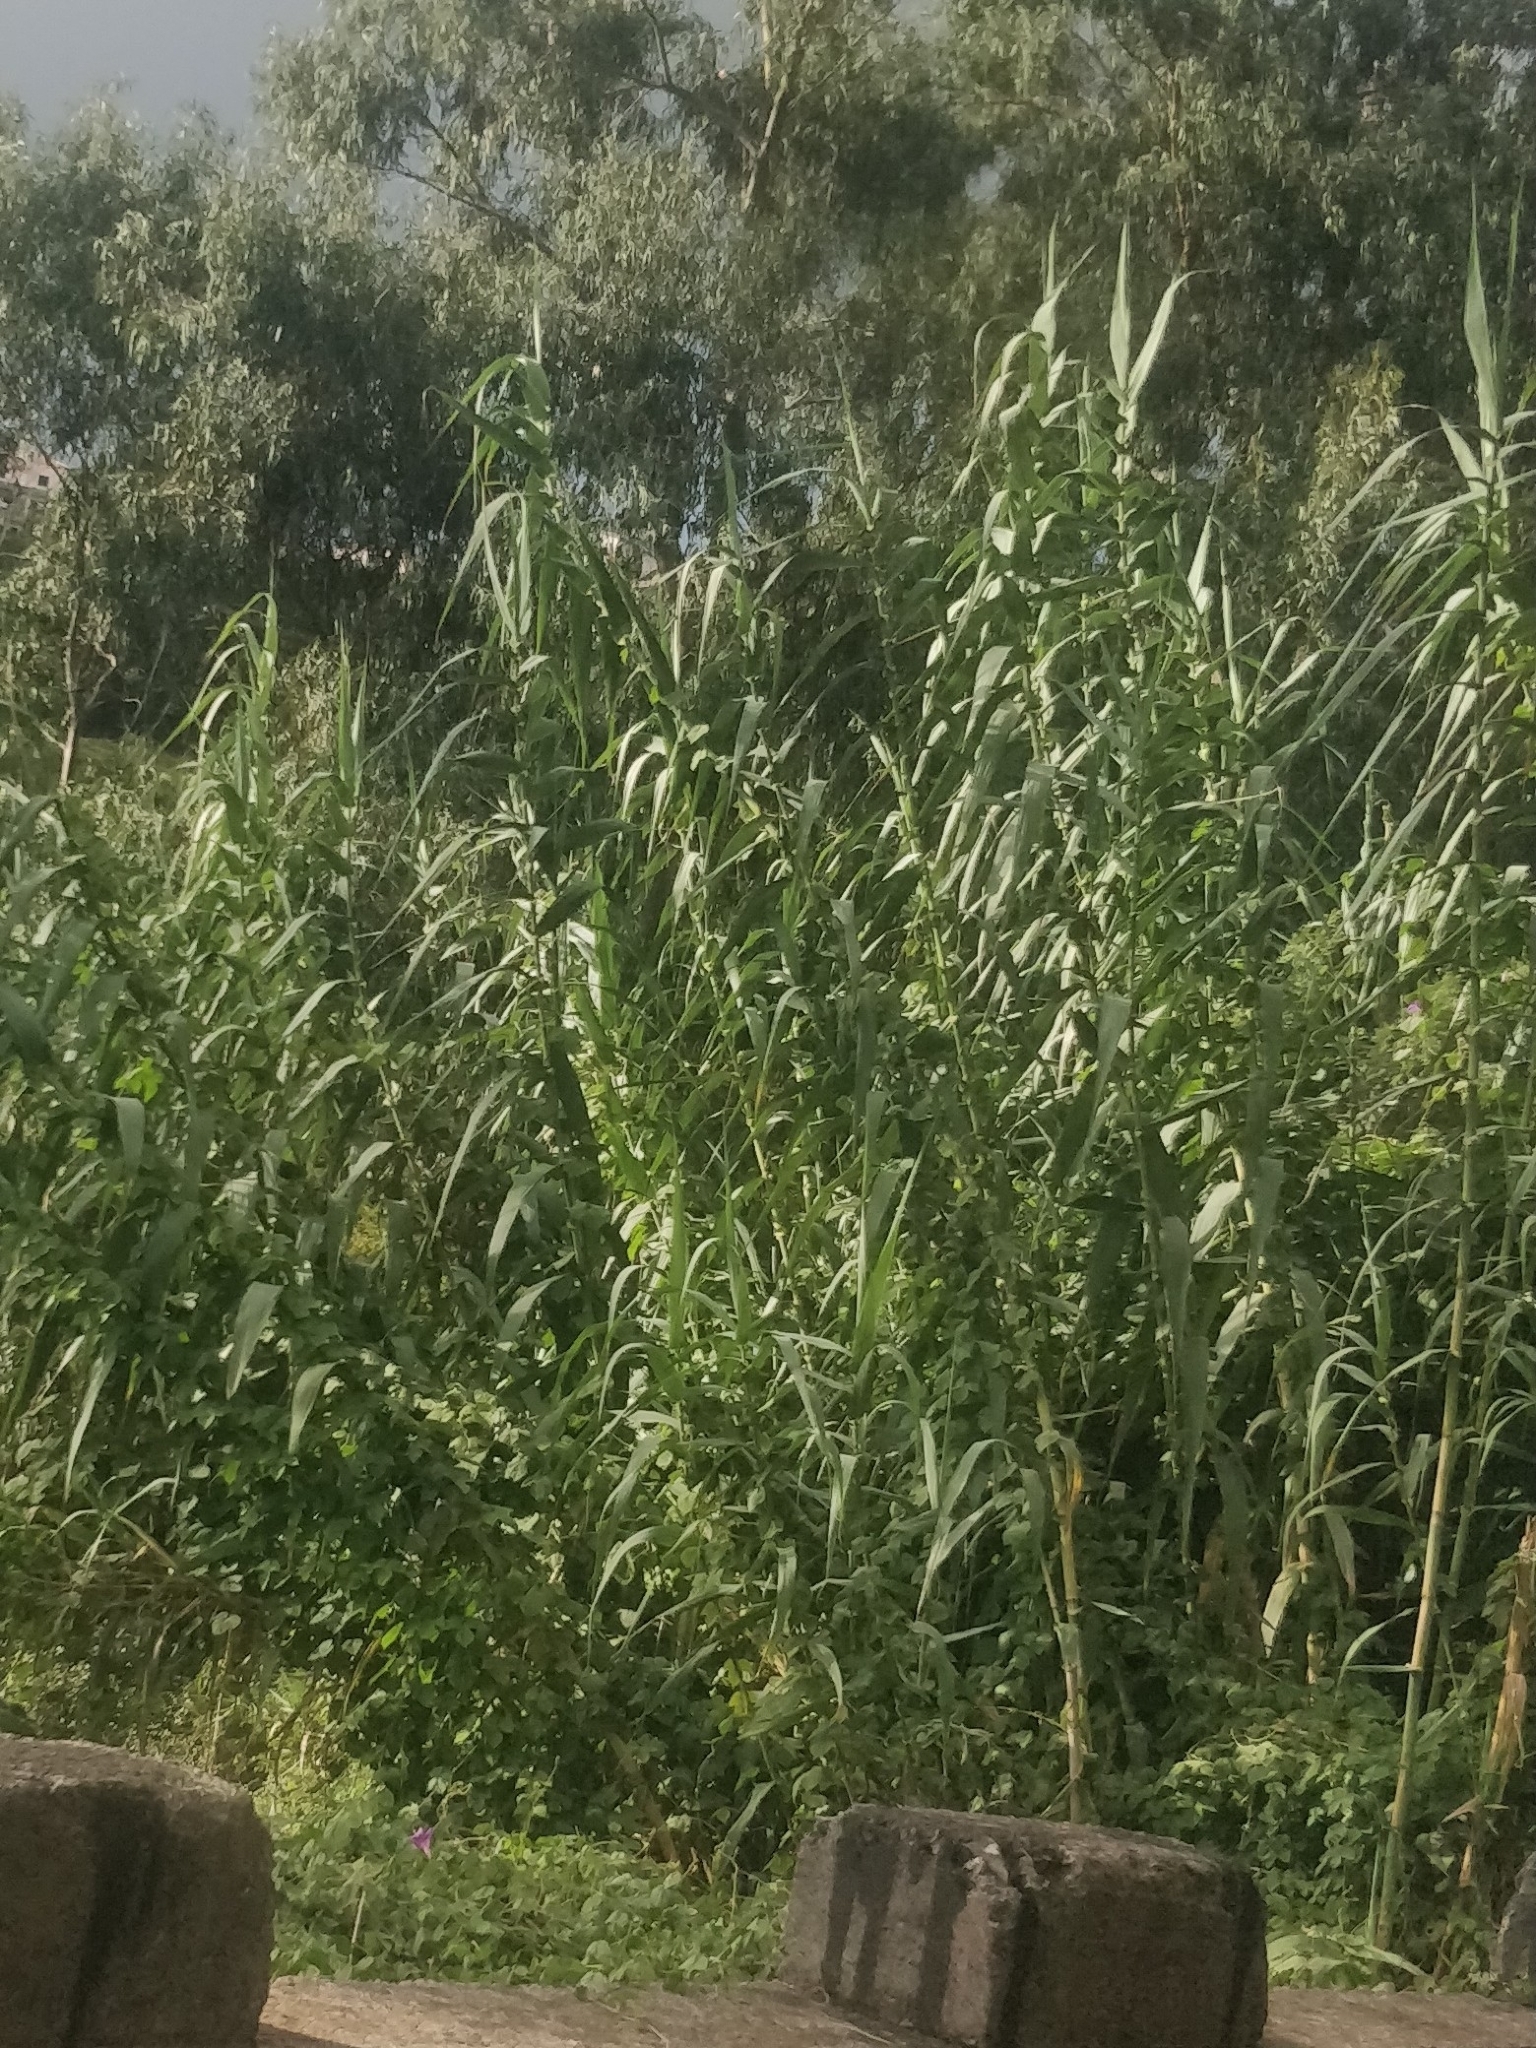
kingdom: Plantae
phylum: Tracheophyta
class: Liliopsida
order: Poales
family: Poaceae
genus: Arundo
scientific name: Arundo donax
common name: Giant reed
